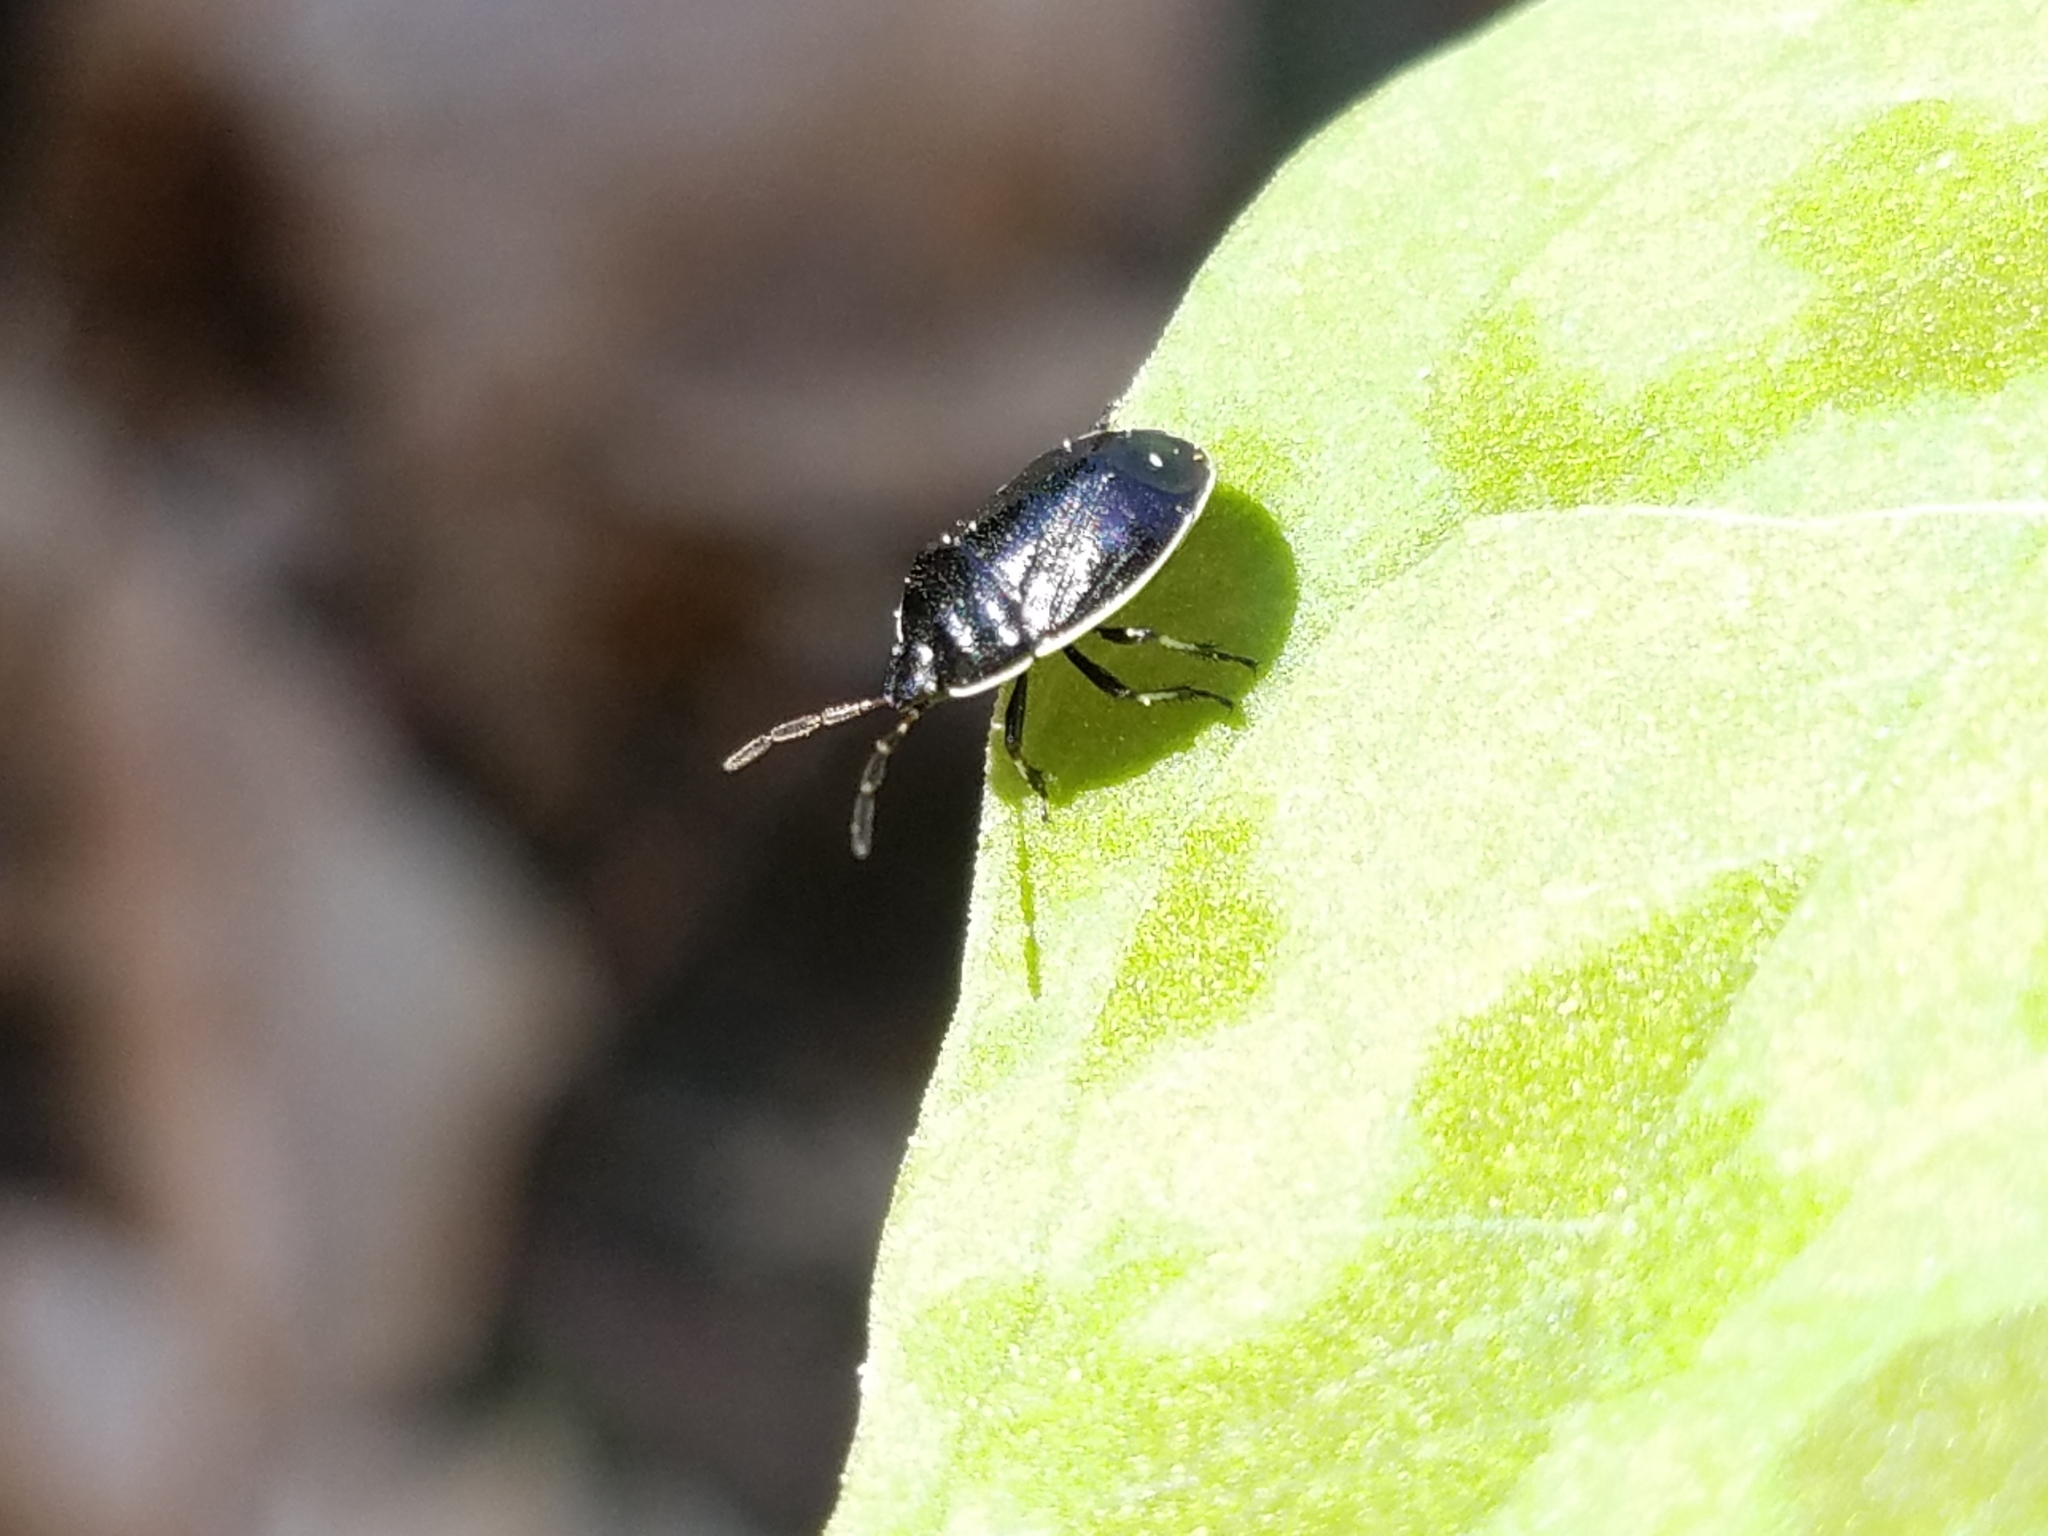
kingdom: Animalia
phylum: Arthropoda
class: Insecta
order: Hemiptera
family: Cydnidae
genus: Sehirus
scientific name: Sehirus cinctus
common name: White-margined burrower bug
